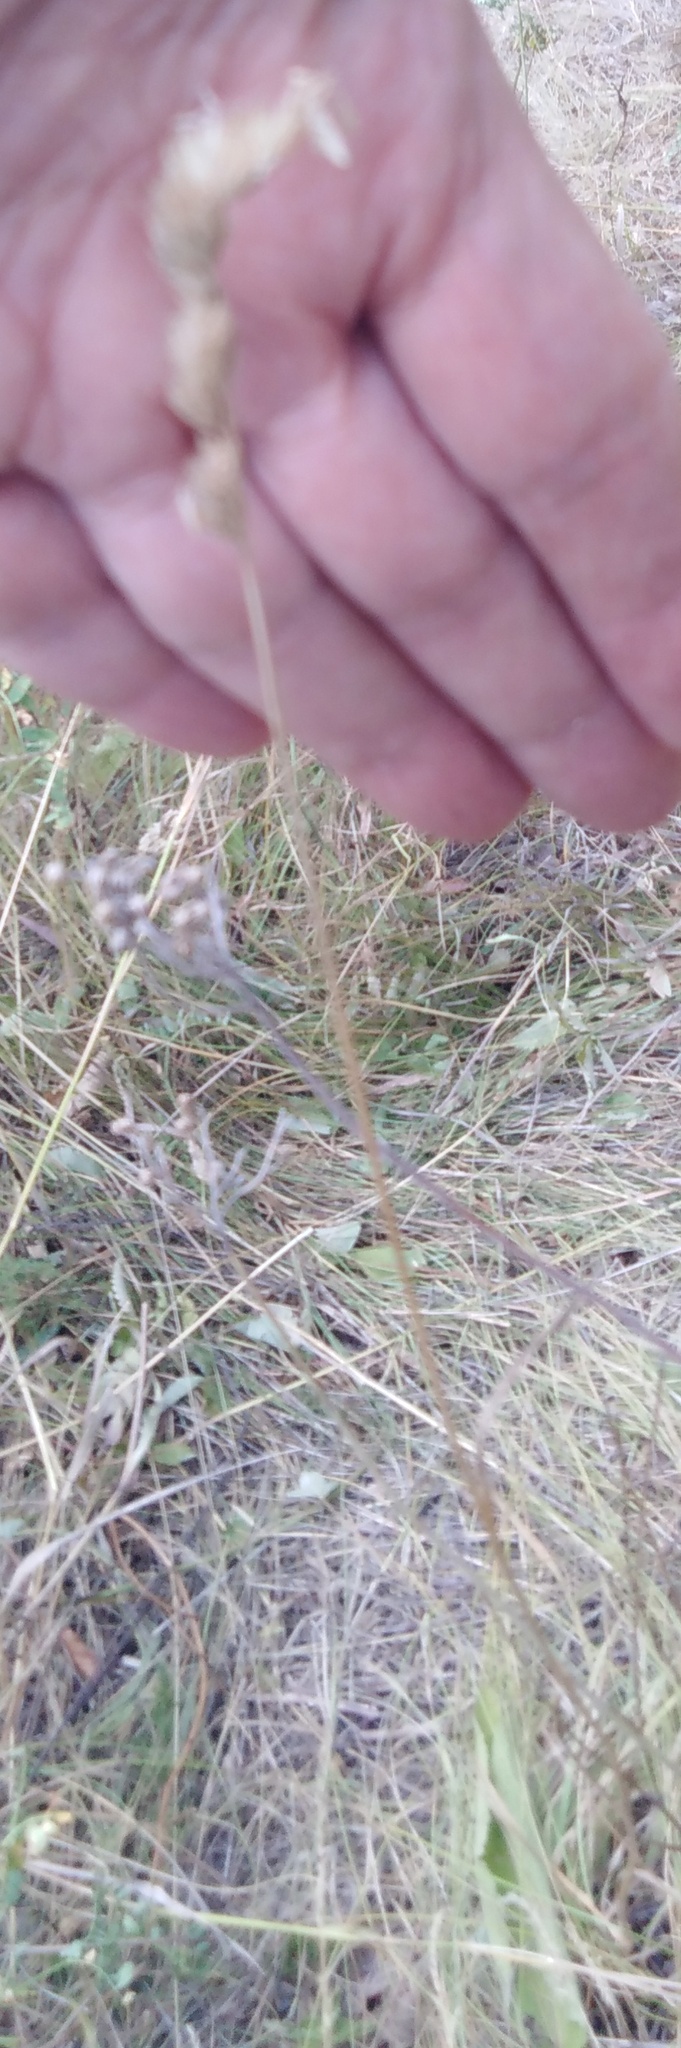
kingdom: Plantae
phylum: Tracheophyta
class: Liliopsida
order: Poales
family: Poaceae
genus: Dactylis
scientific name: Dactylis glomerata
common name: Orchardgrass
